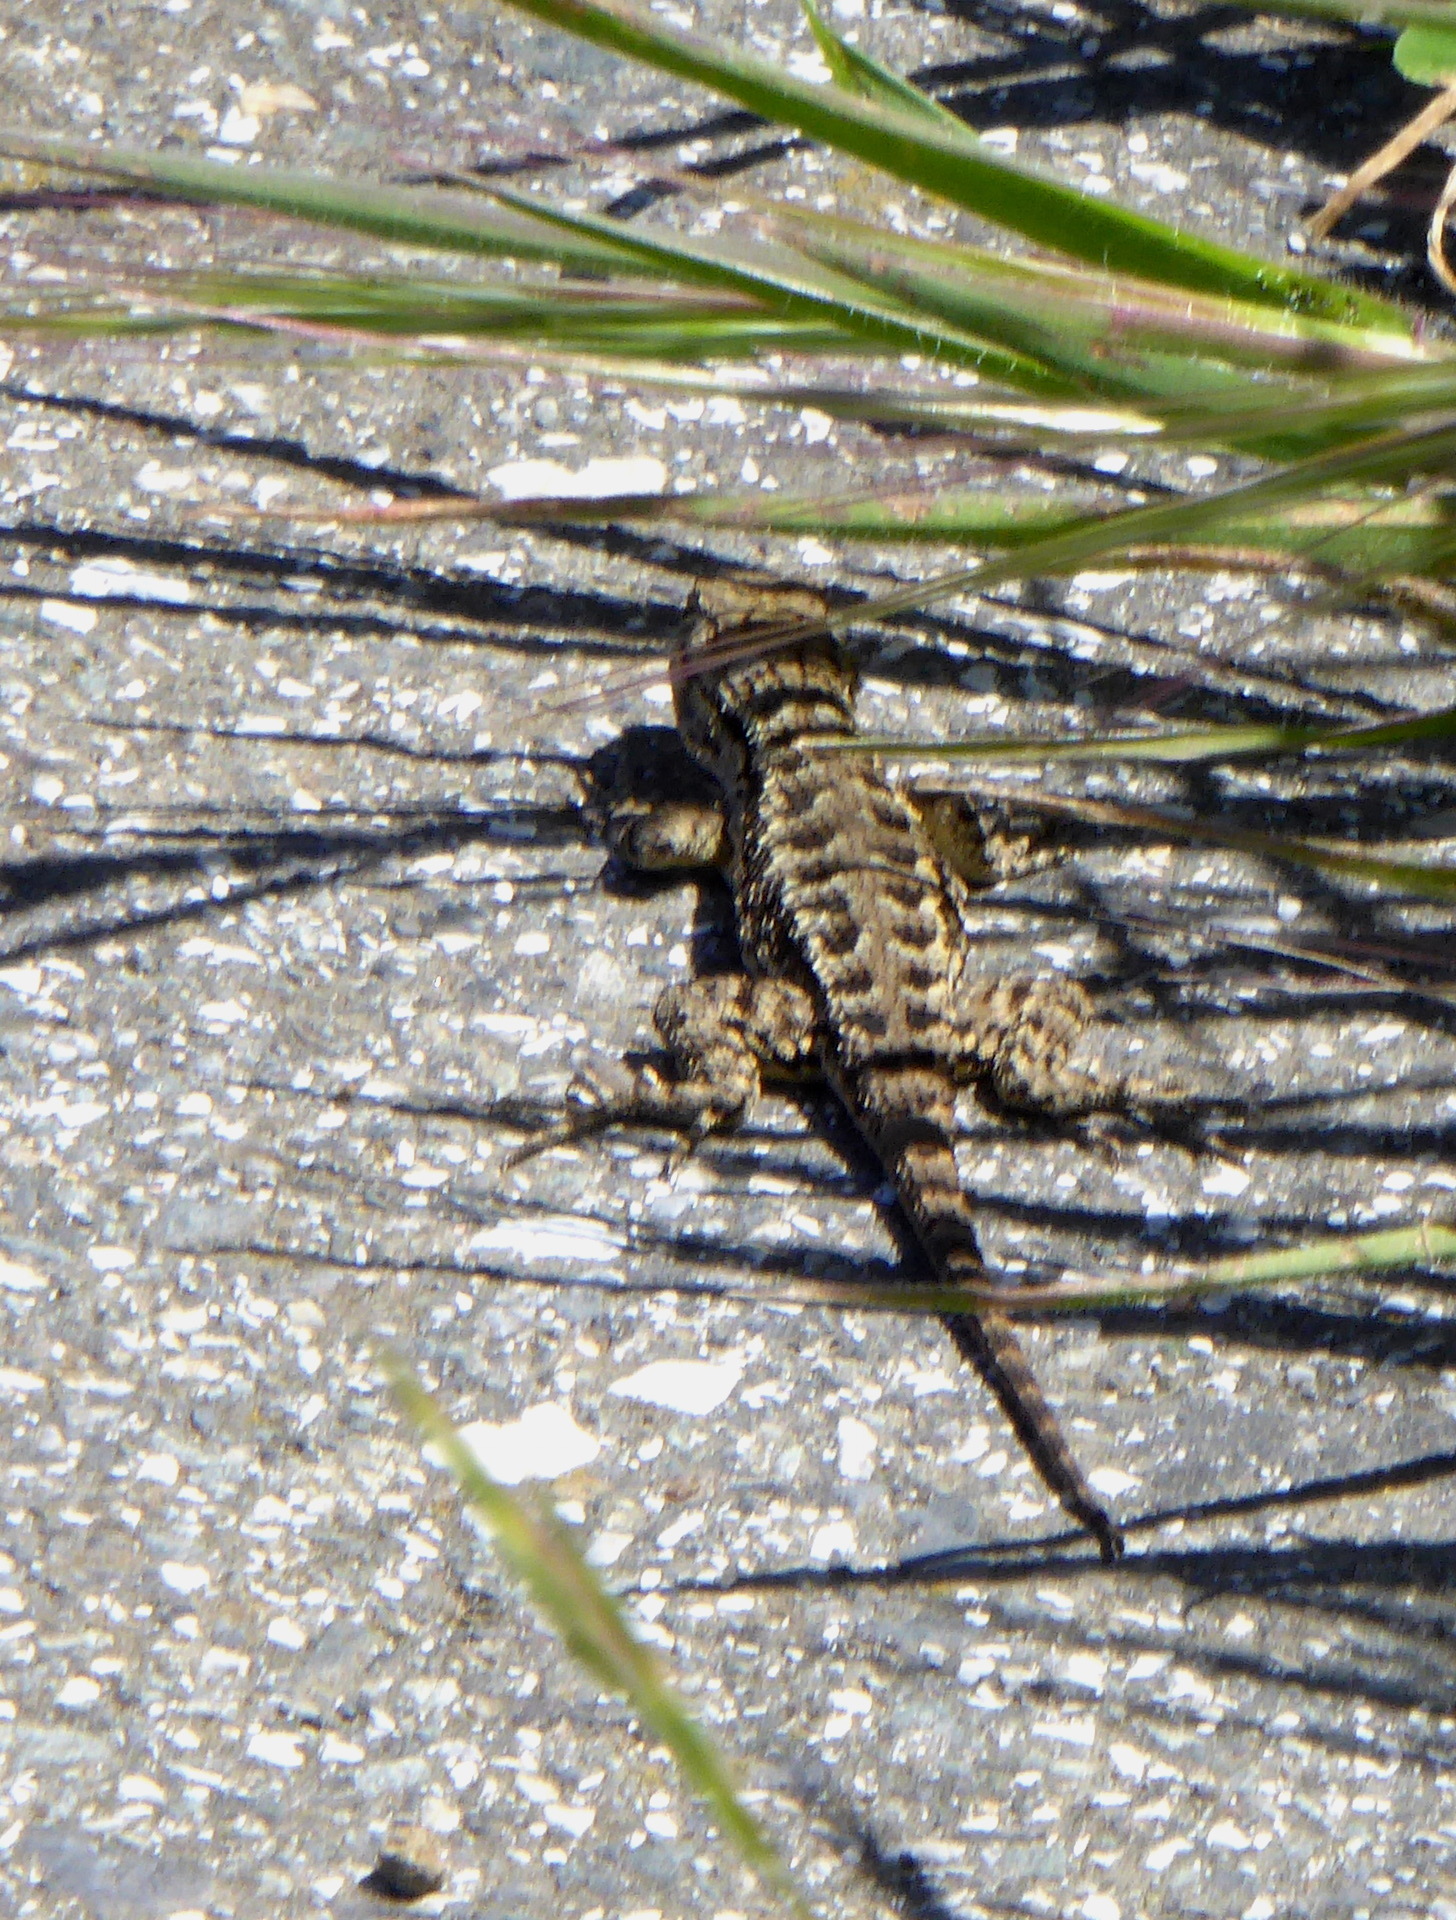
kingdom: Animalia
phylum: Chordata
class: Squamata
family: Phrynosomatidae
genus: Sceloporus
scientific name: Sceloporus occidentalis
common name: Western fence lizard
